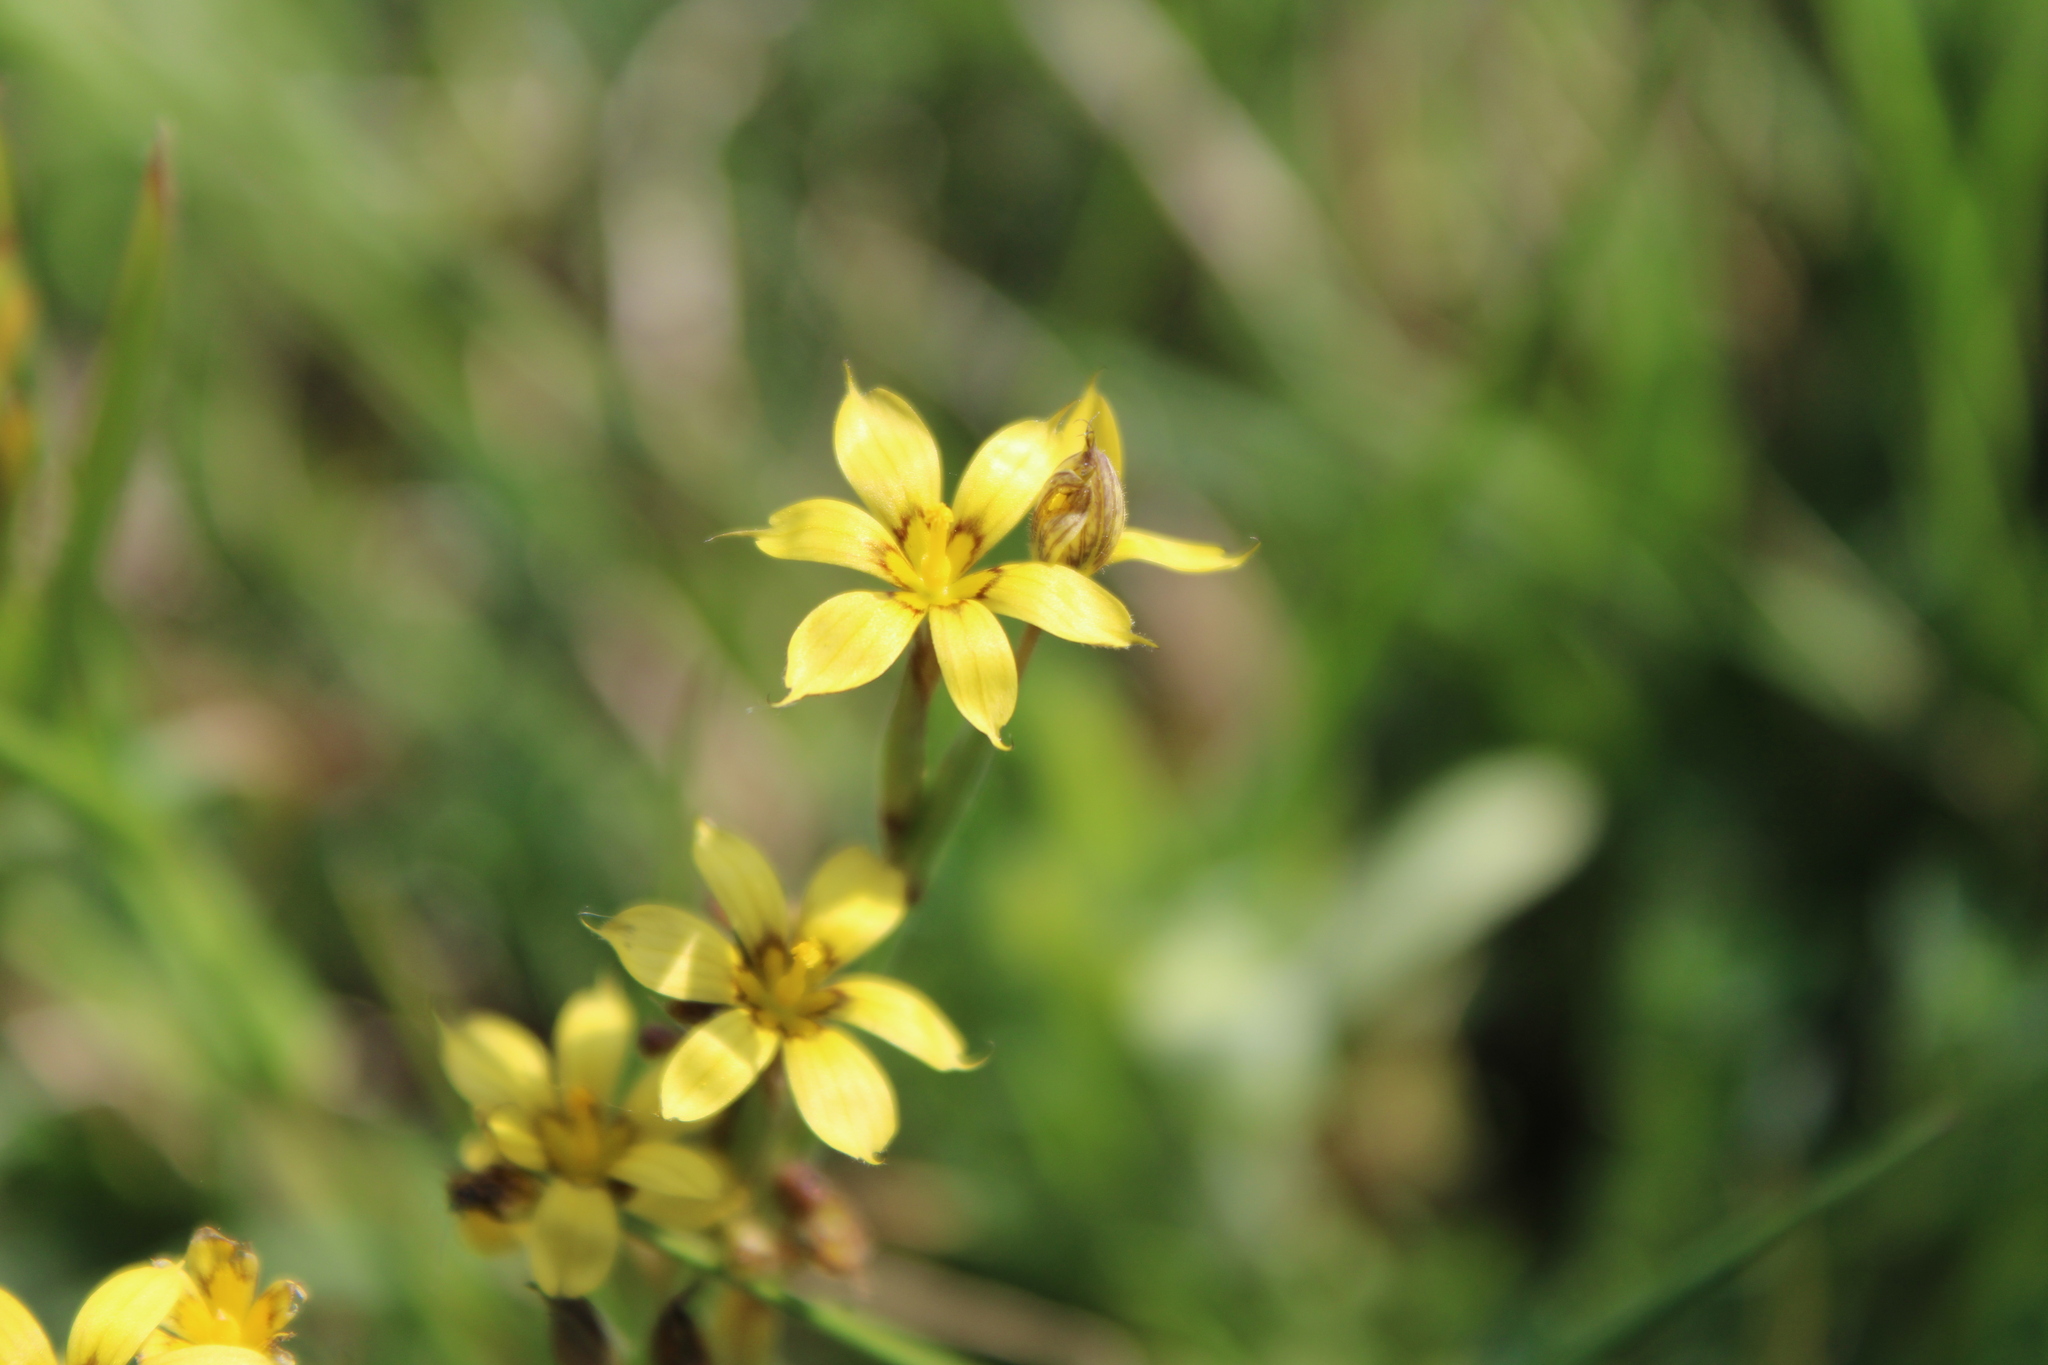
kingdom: Plantae
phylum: Tracheophyta
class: Liliopsida
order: Asparagales
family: Iridaceae
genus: Sisyrinchium
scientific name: Sisyrinchium pachyrhizum
